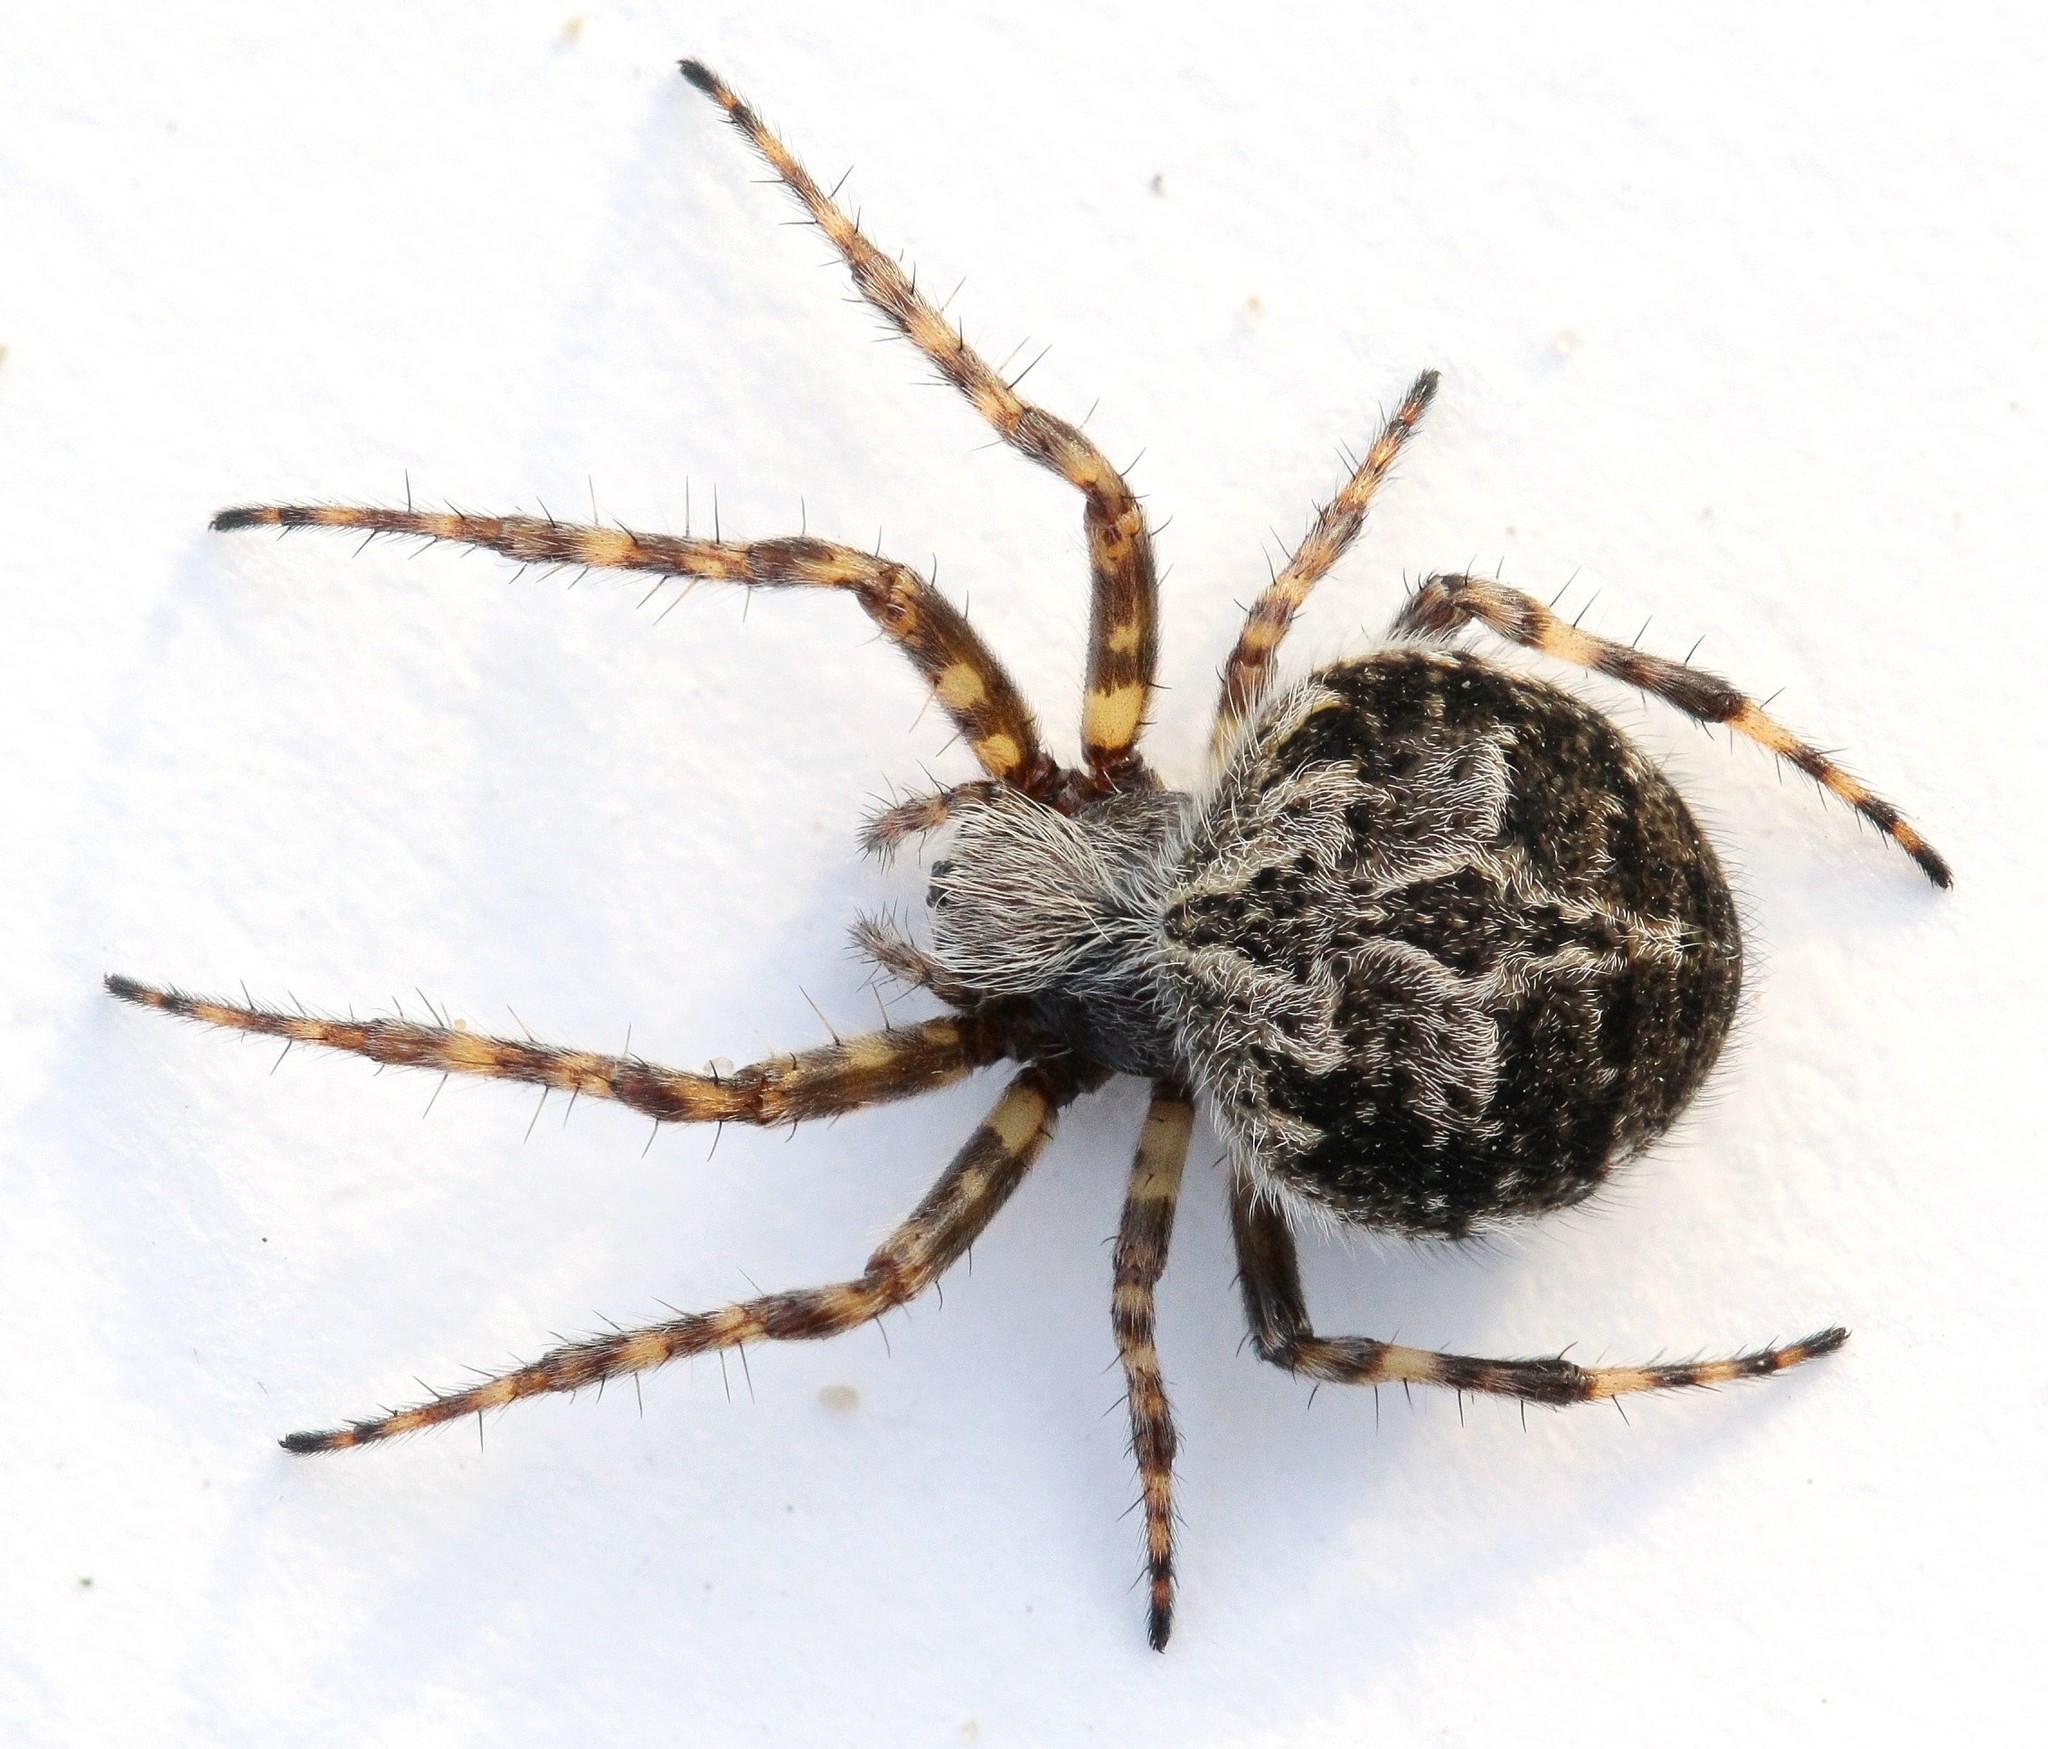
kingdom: Animalia
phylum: Arthropoda
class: Arachnida
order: Araneae
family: Araneidae
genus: Agalenatea
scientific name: Agalenatea redii
